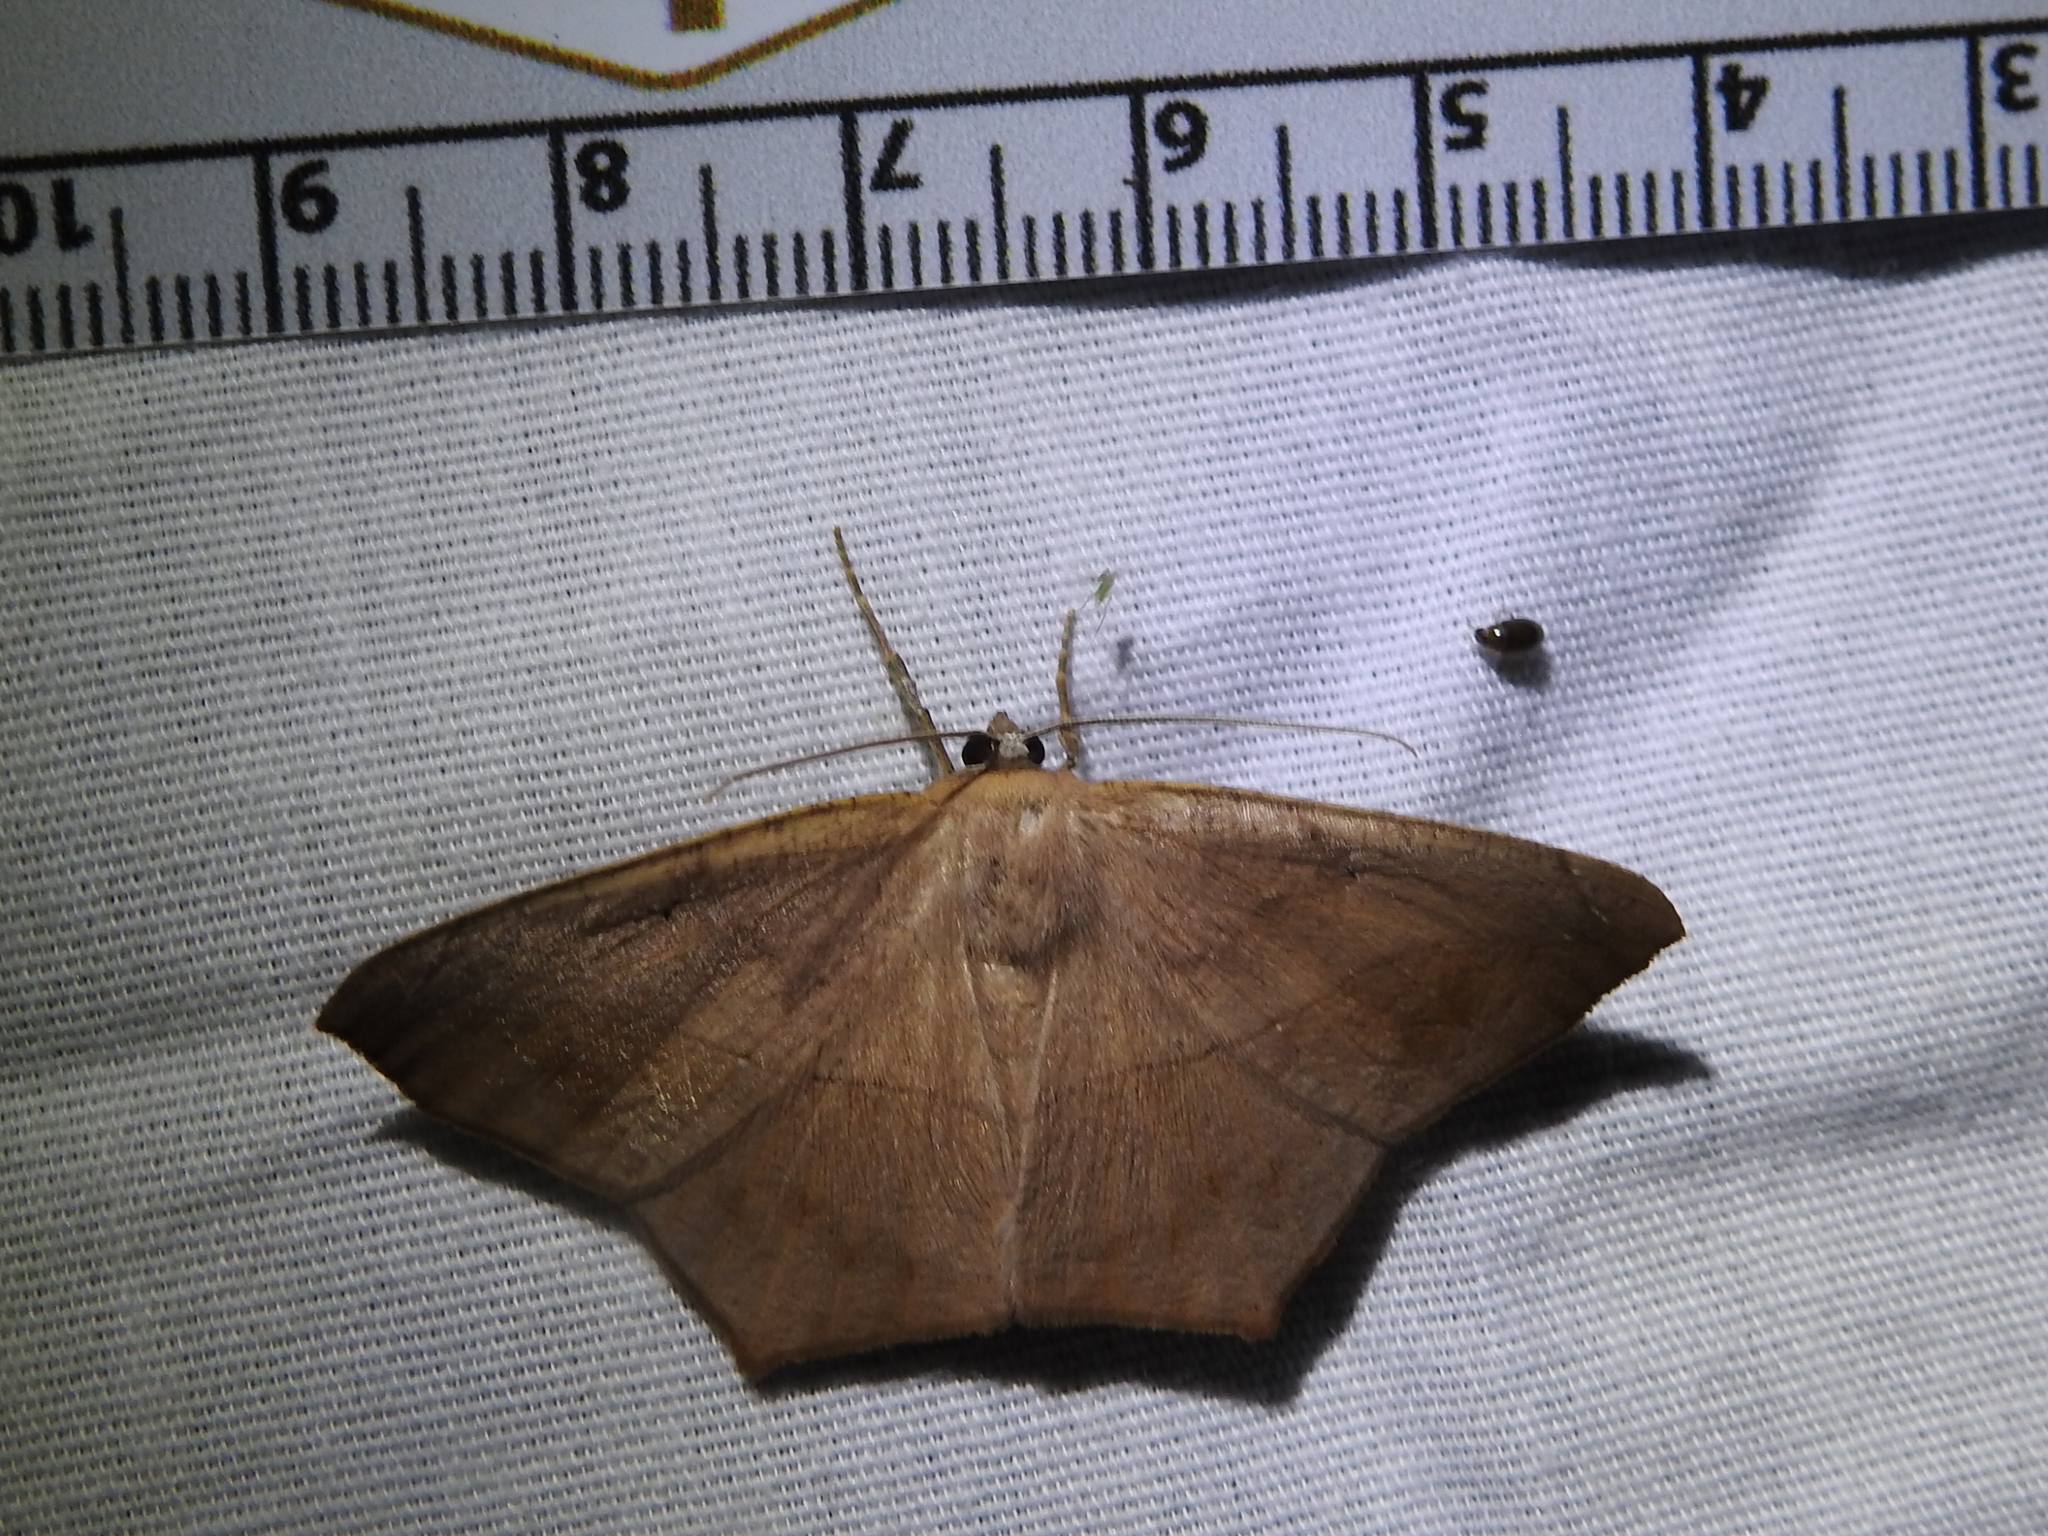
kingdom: Animalia
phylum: Arthropoda
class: Insecta
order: Lepidoptera
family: Geometridae
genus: Prochoerodes
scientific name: Prochoerodes lineola
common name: Large maple spanworm
